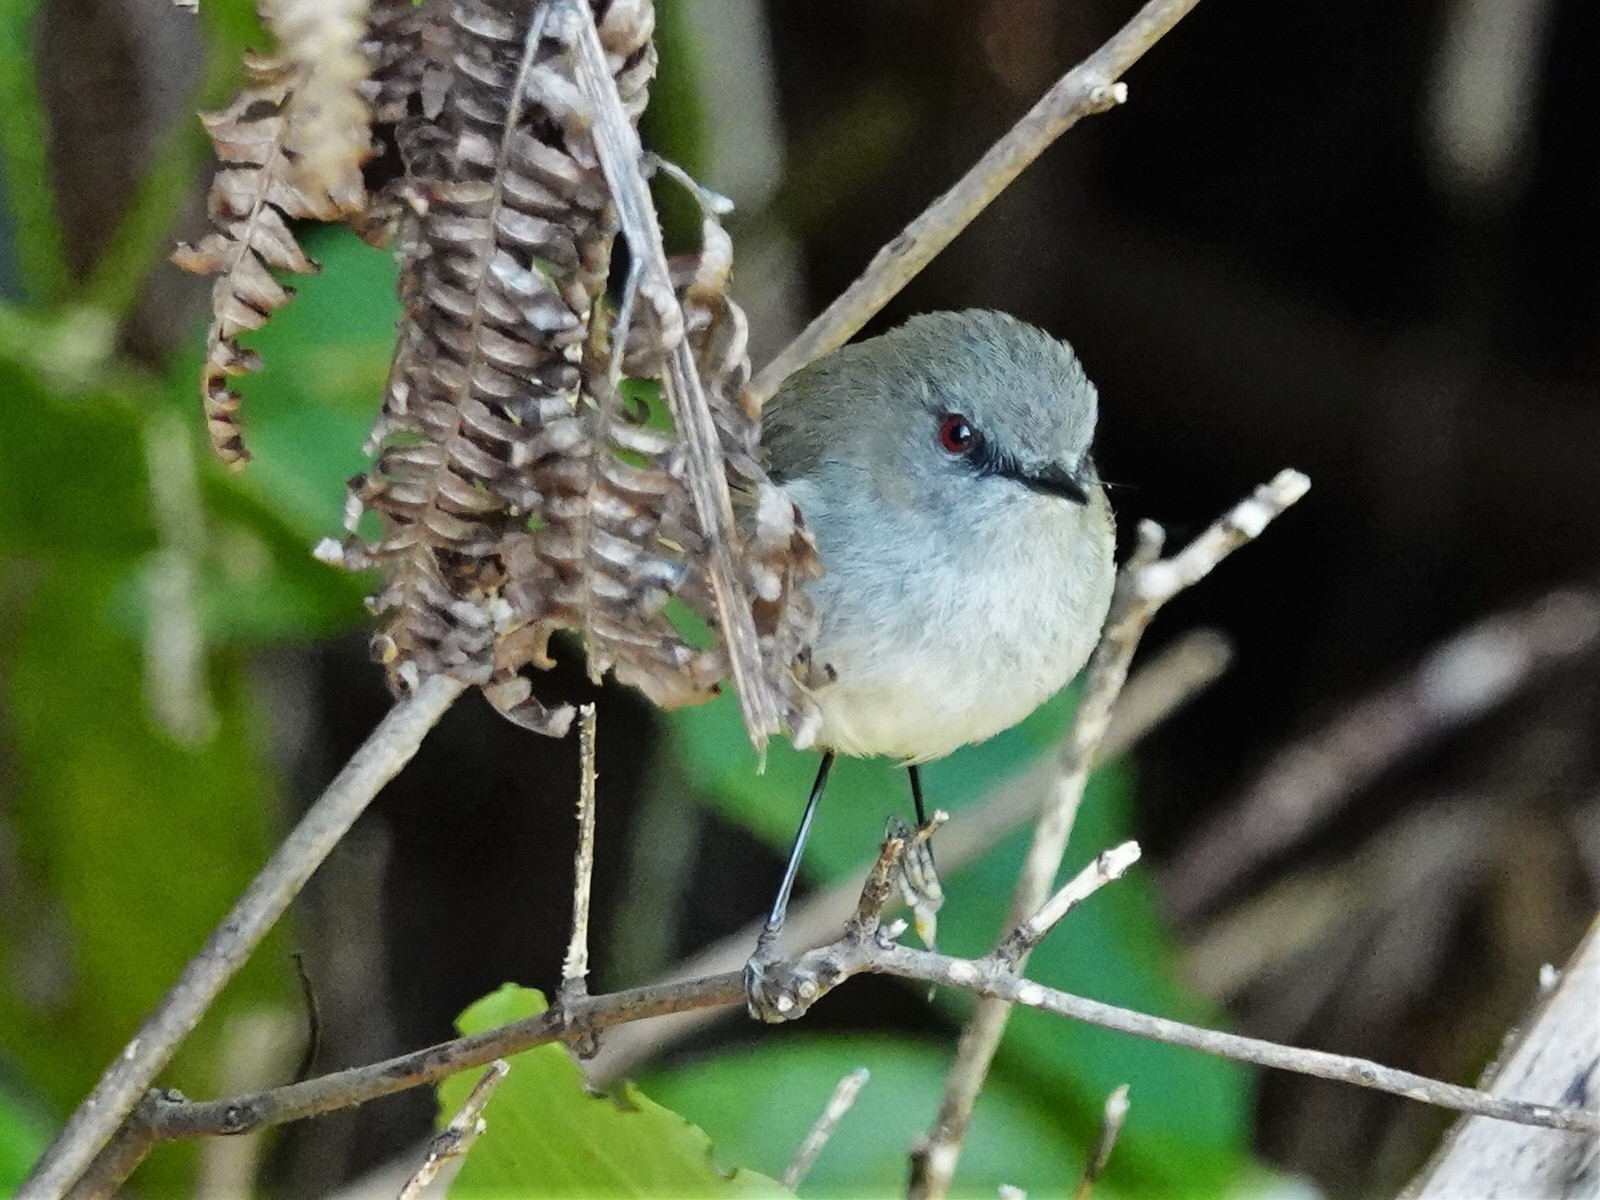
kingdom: Animalia
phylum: Chordata
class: Aves
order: Passeriformes
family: Acanthizidae
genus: Gerygone
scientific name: Gerygone igata
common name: Grey gerygone
